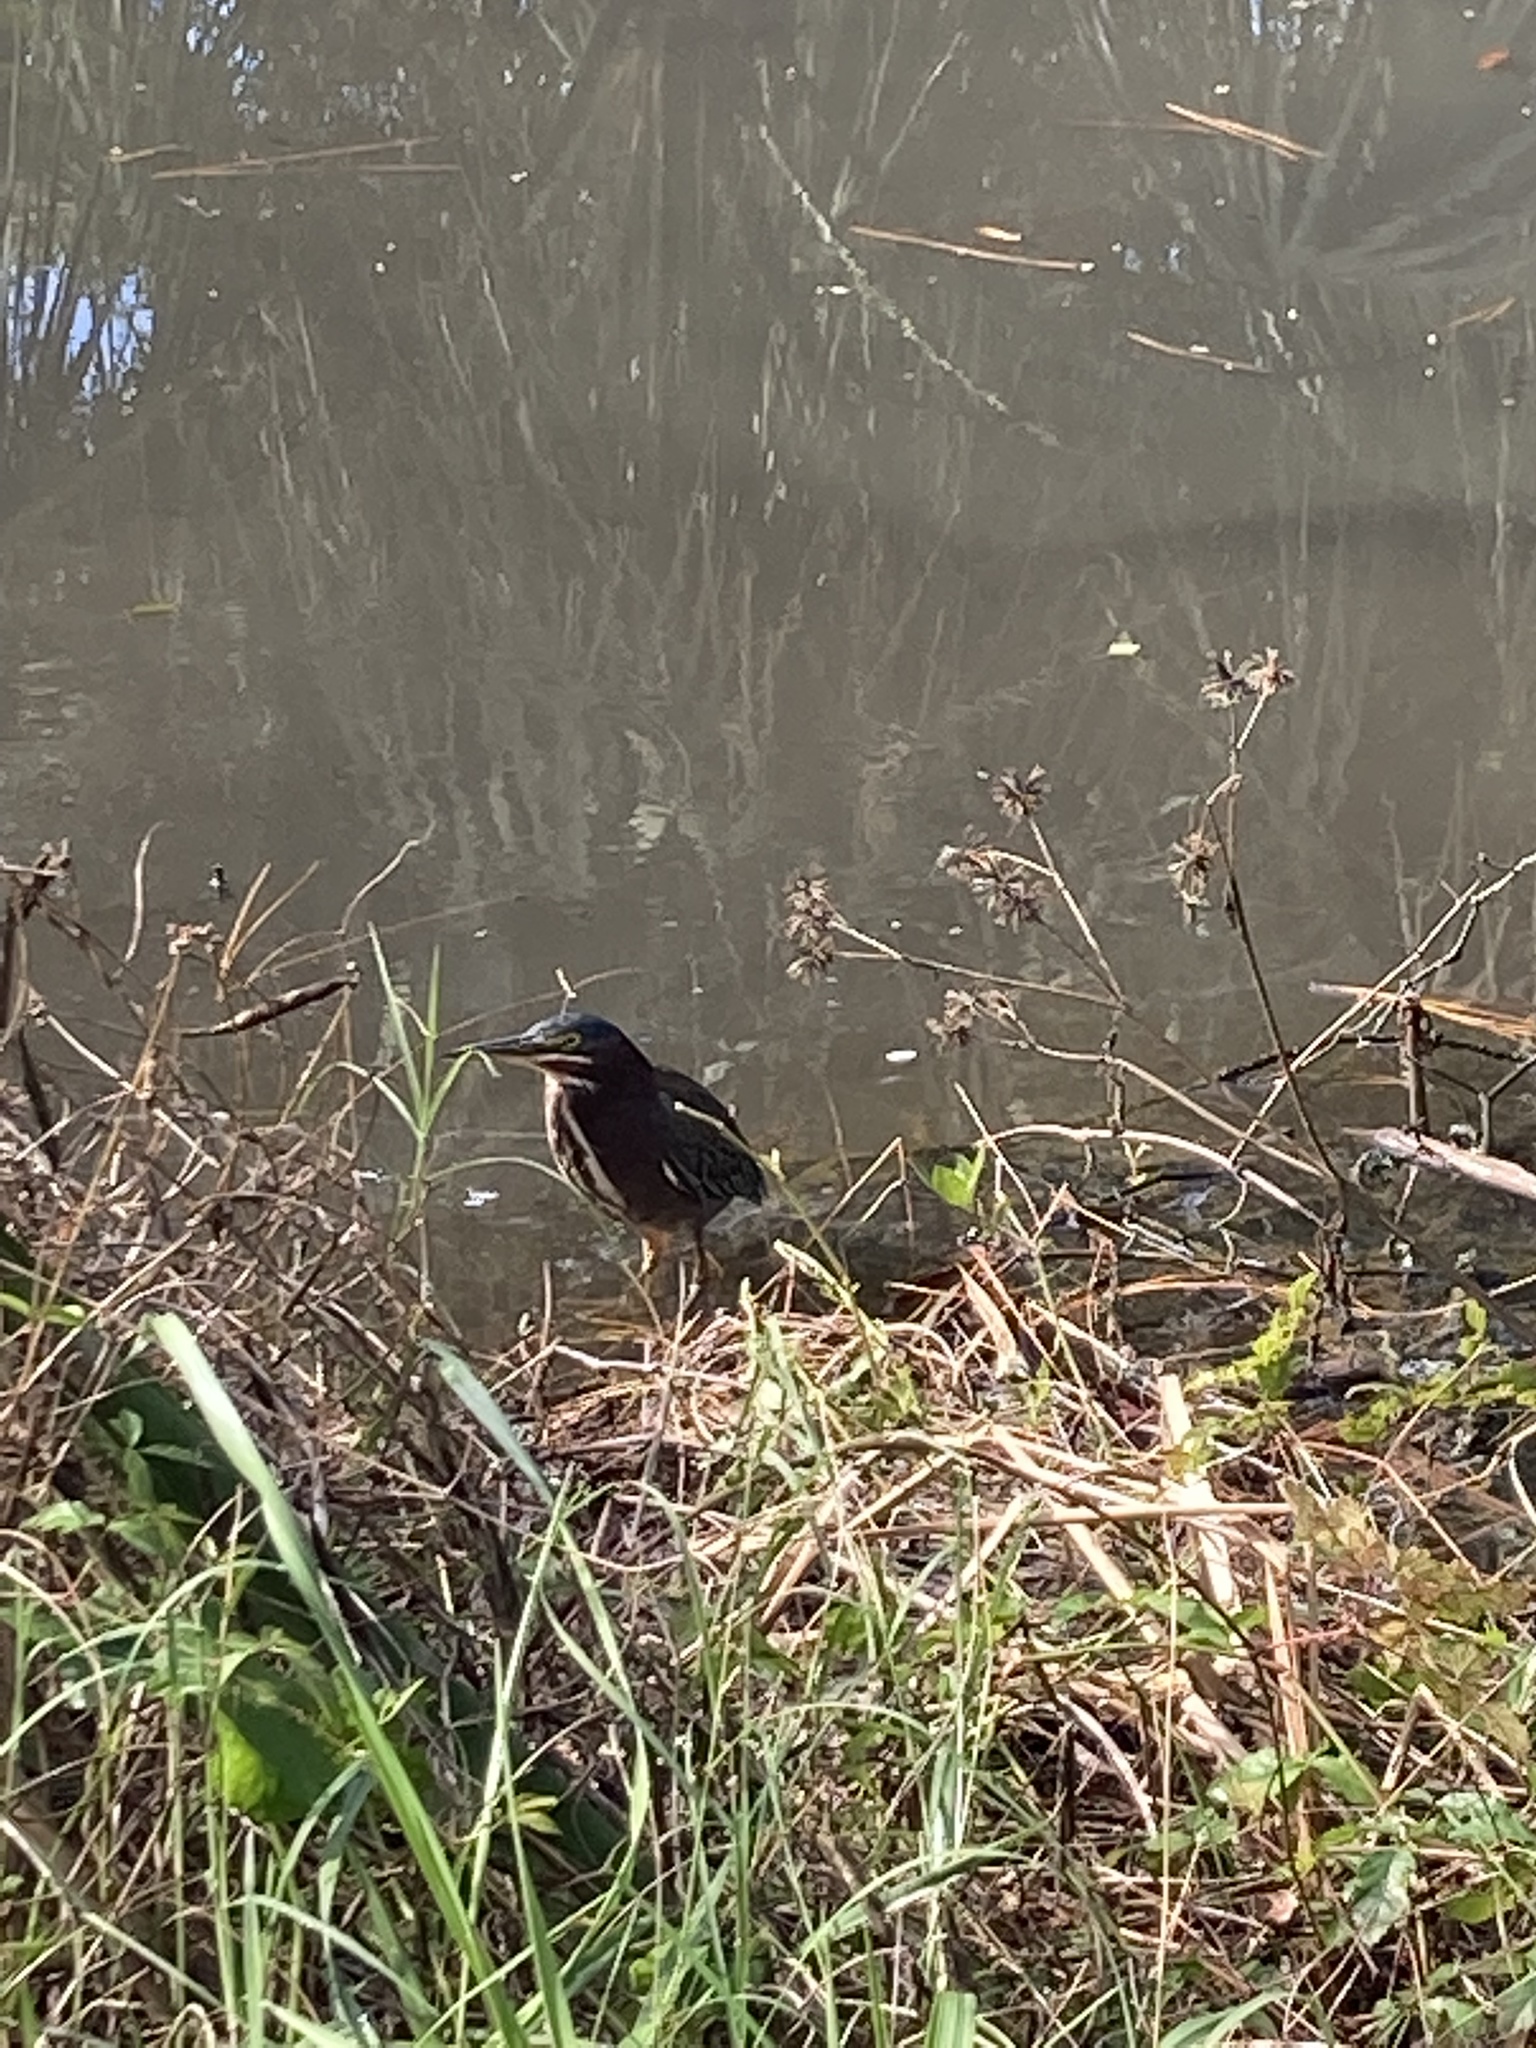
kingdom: Animalia
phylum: Chordata
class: Aves
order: Pelecaniformes
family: Ardeidae
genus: Butorides
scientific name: Butorides virescens
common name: Green heron
